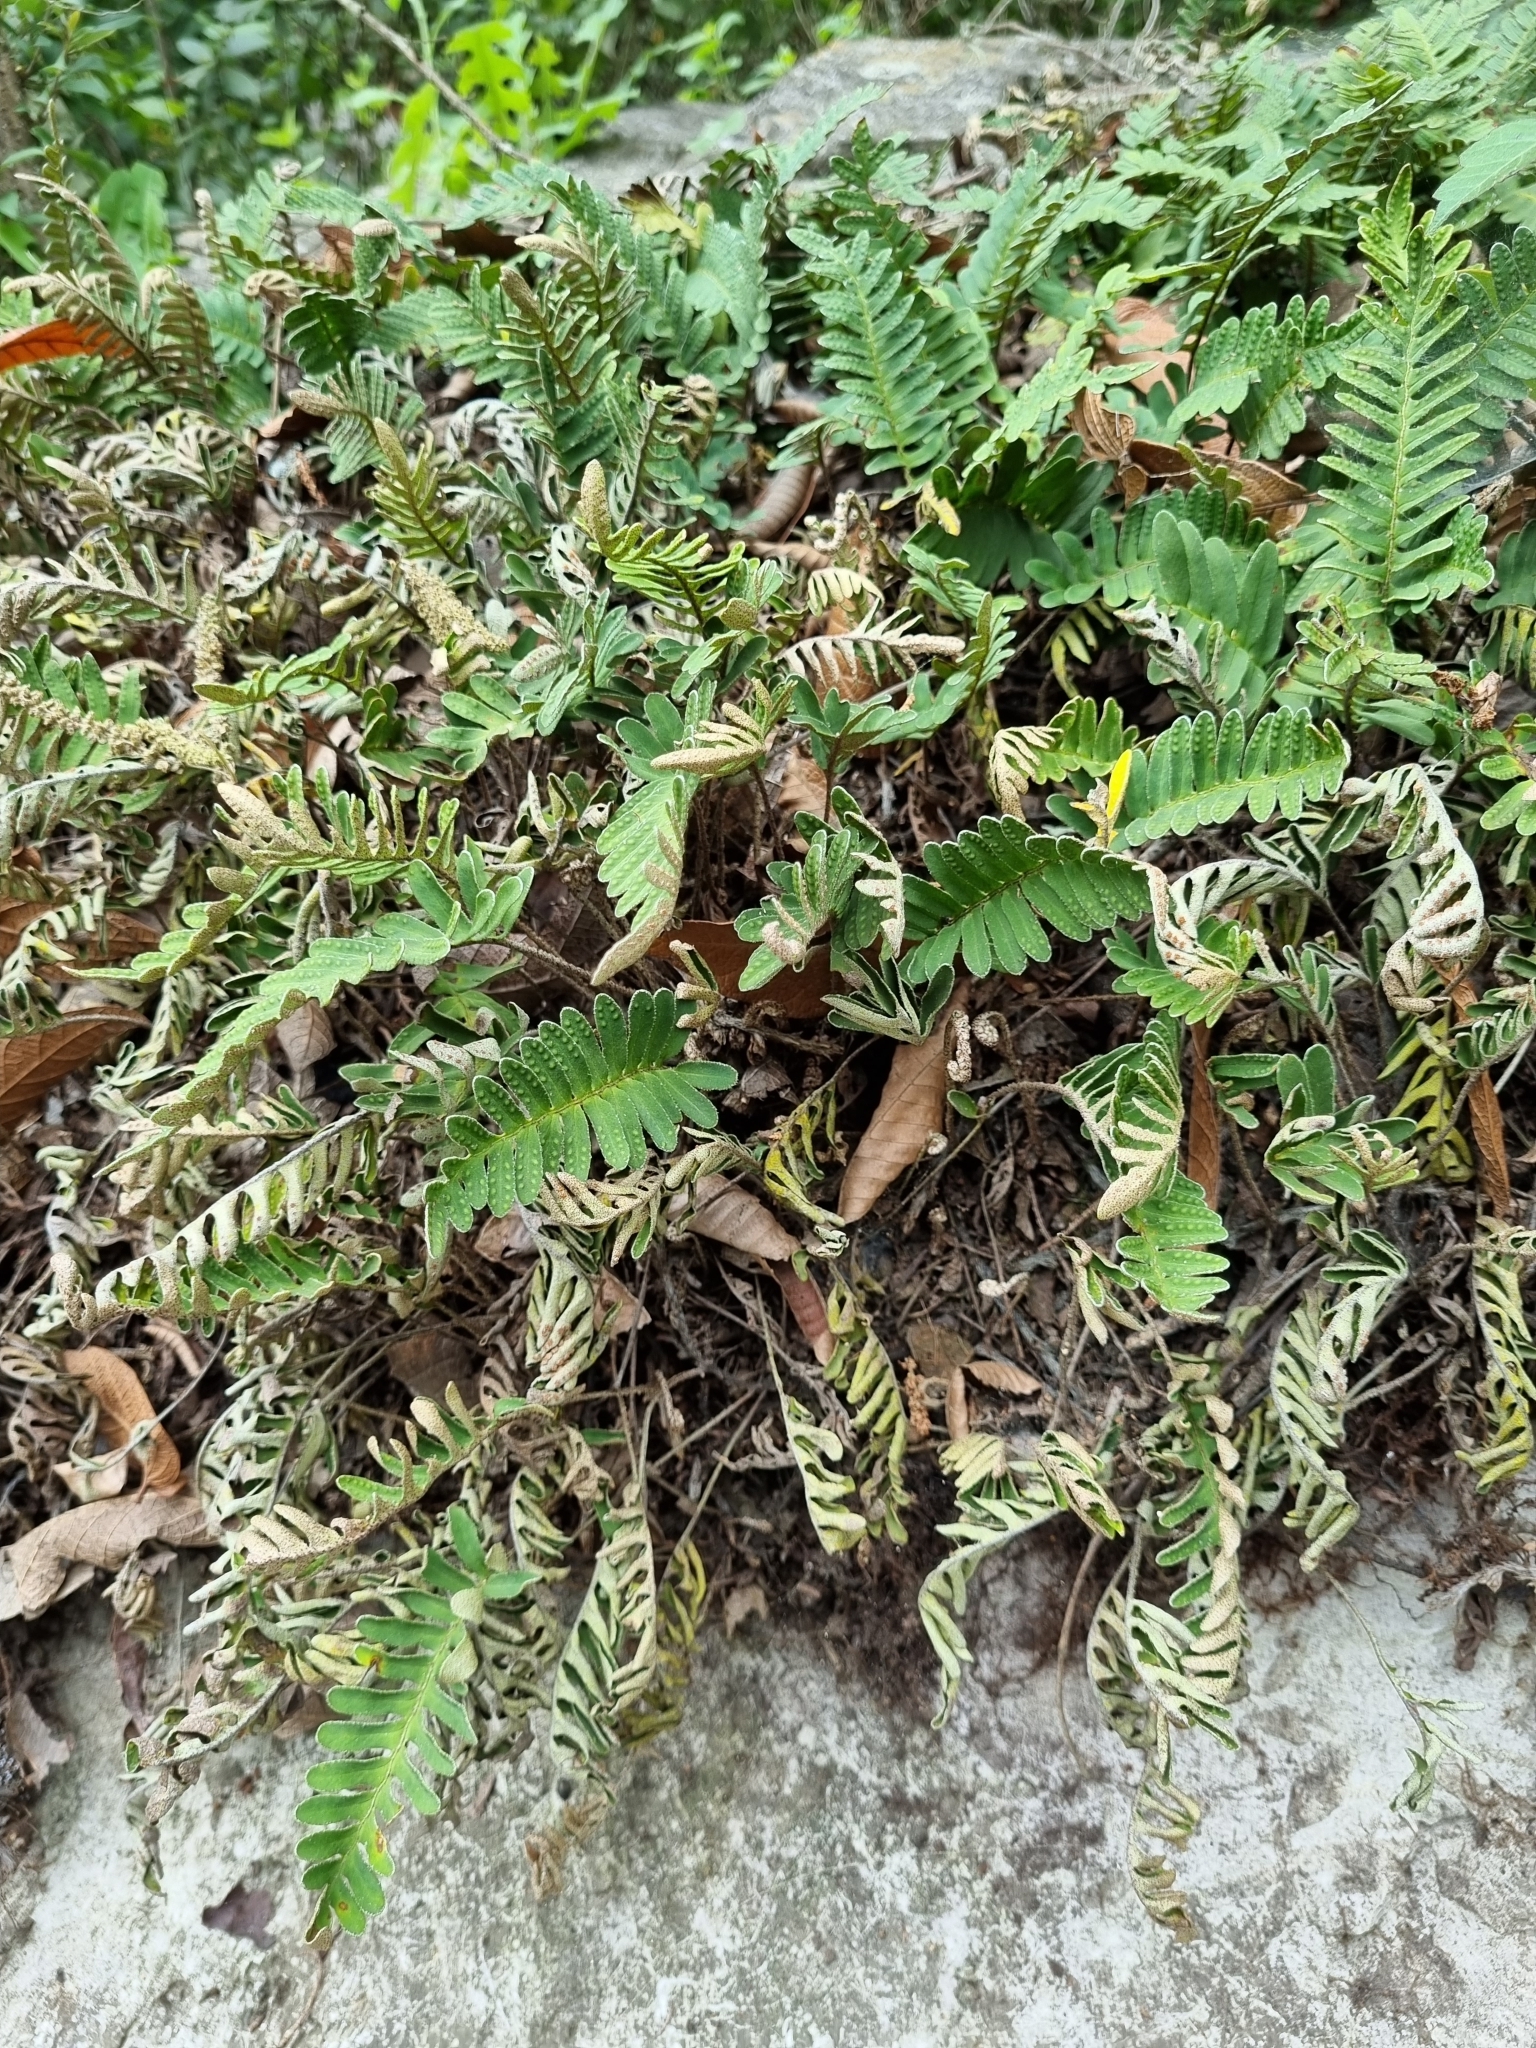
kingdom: Plantae
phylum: Tracheophyta
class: Polypodiopsida
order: Polypodiales
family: Polypodiaceae
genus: Pleopeltis
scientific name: Pleopeltis michauxiana
